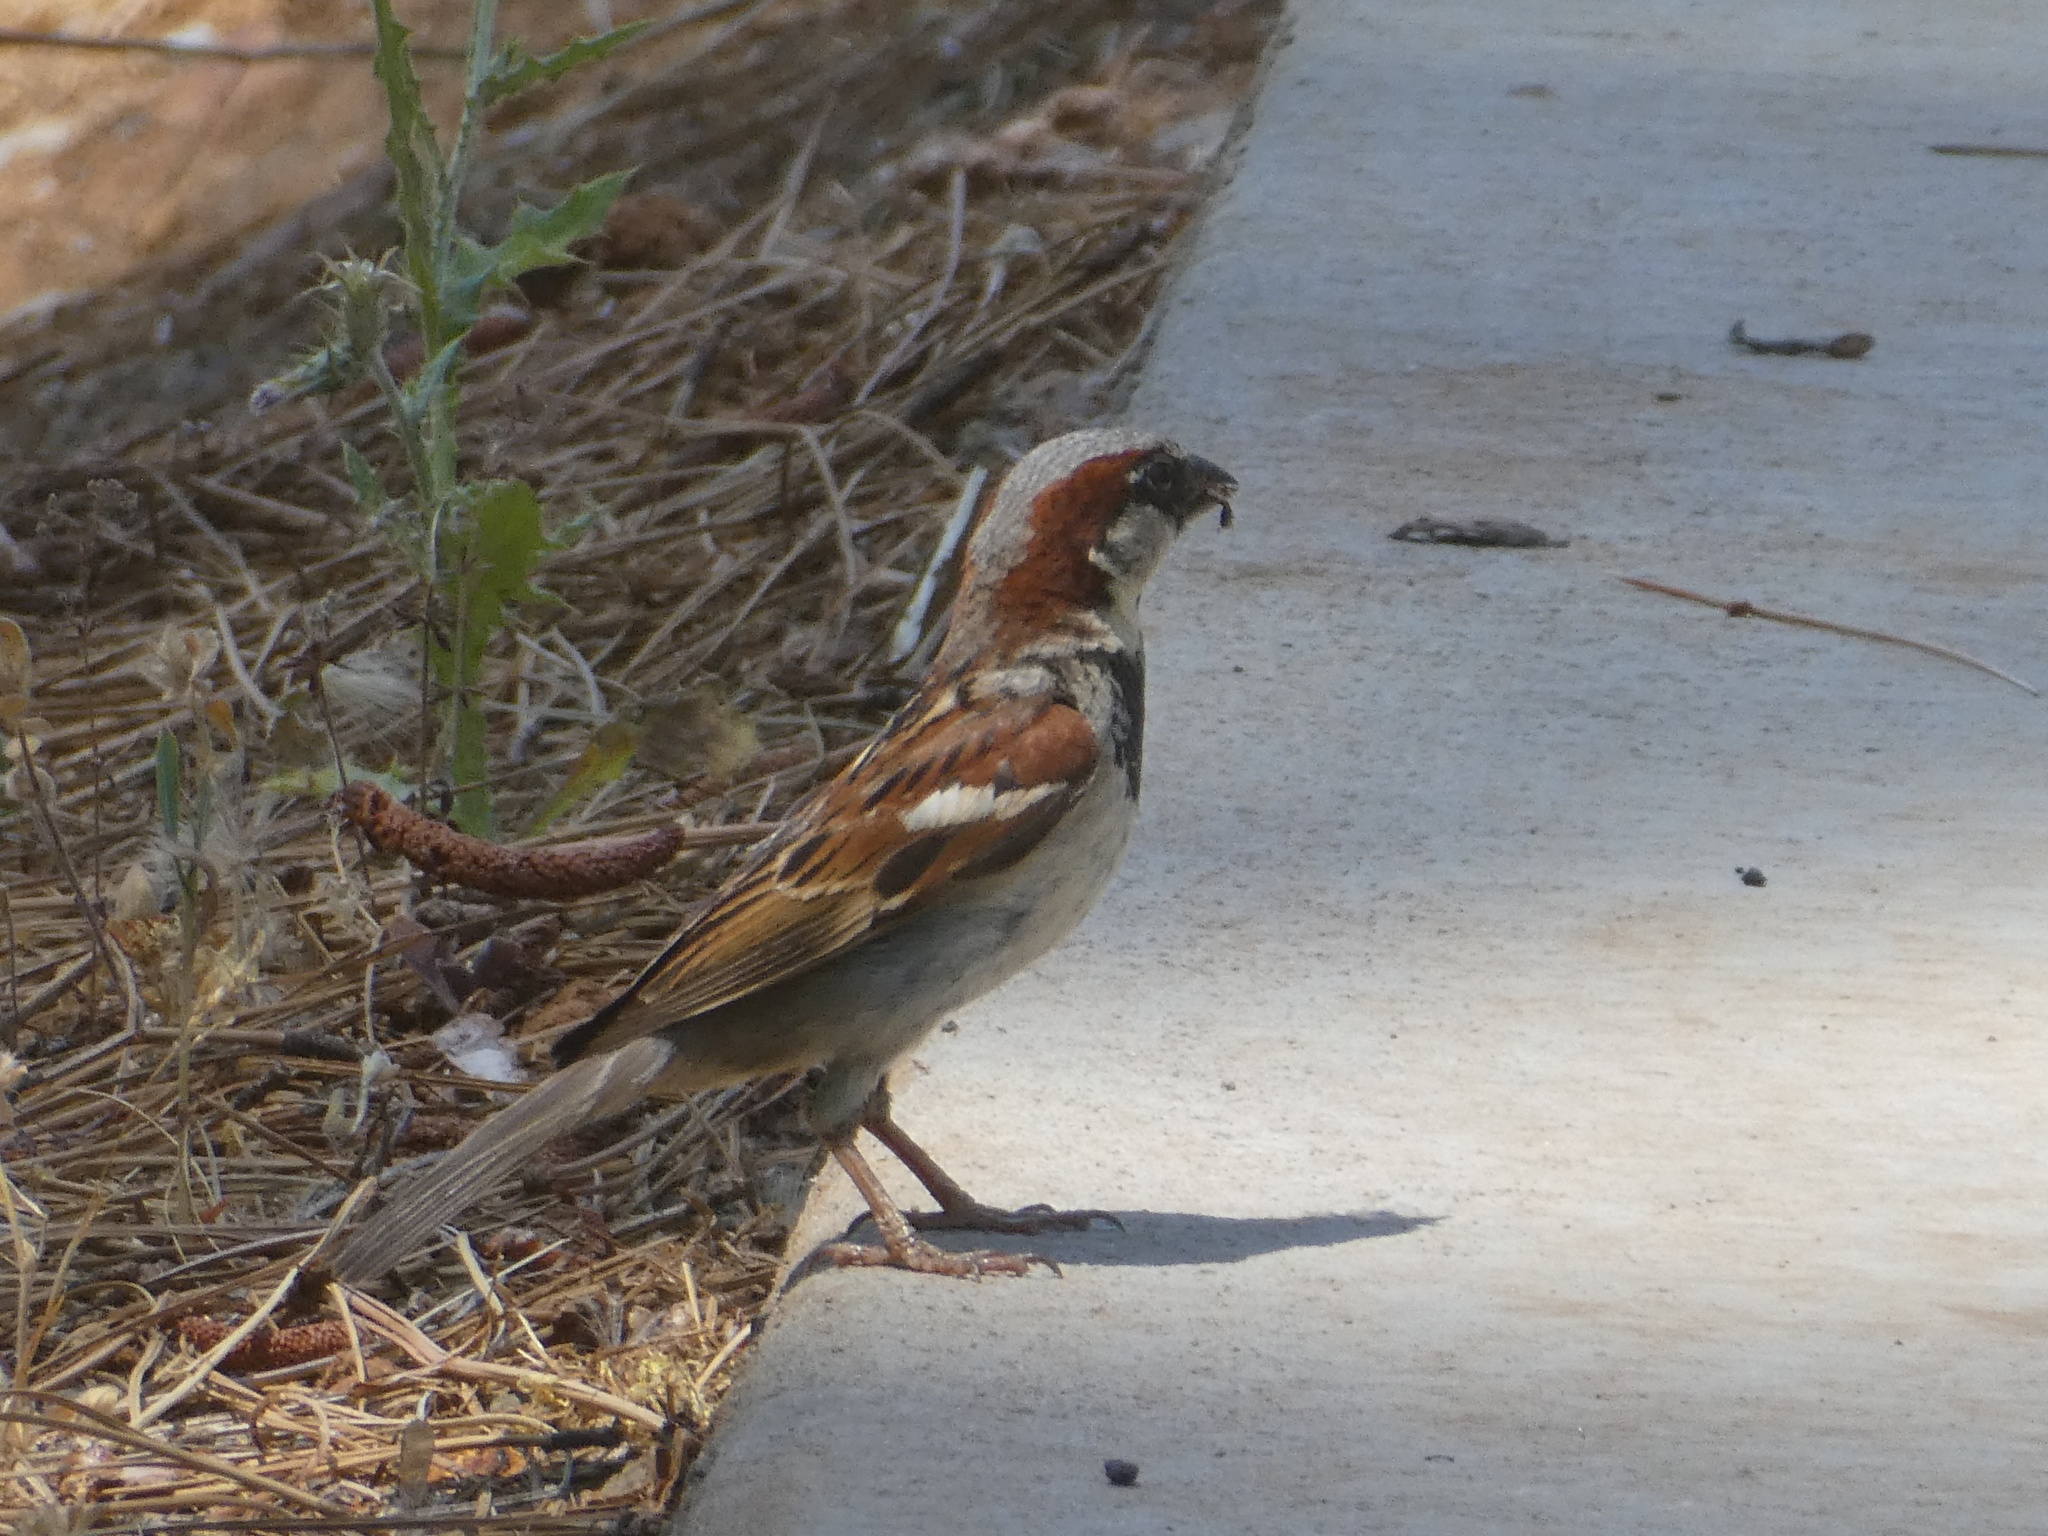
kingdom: Animalia
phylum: Chordata
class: Aves
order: Passeriformes
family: Passeridae
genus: Passer
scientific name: Passer domesticus
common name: House sparrow
